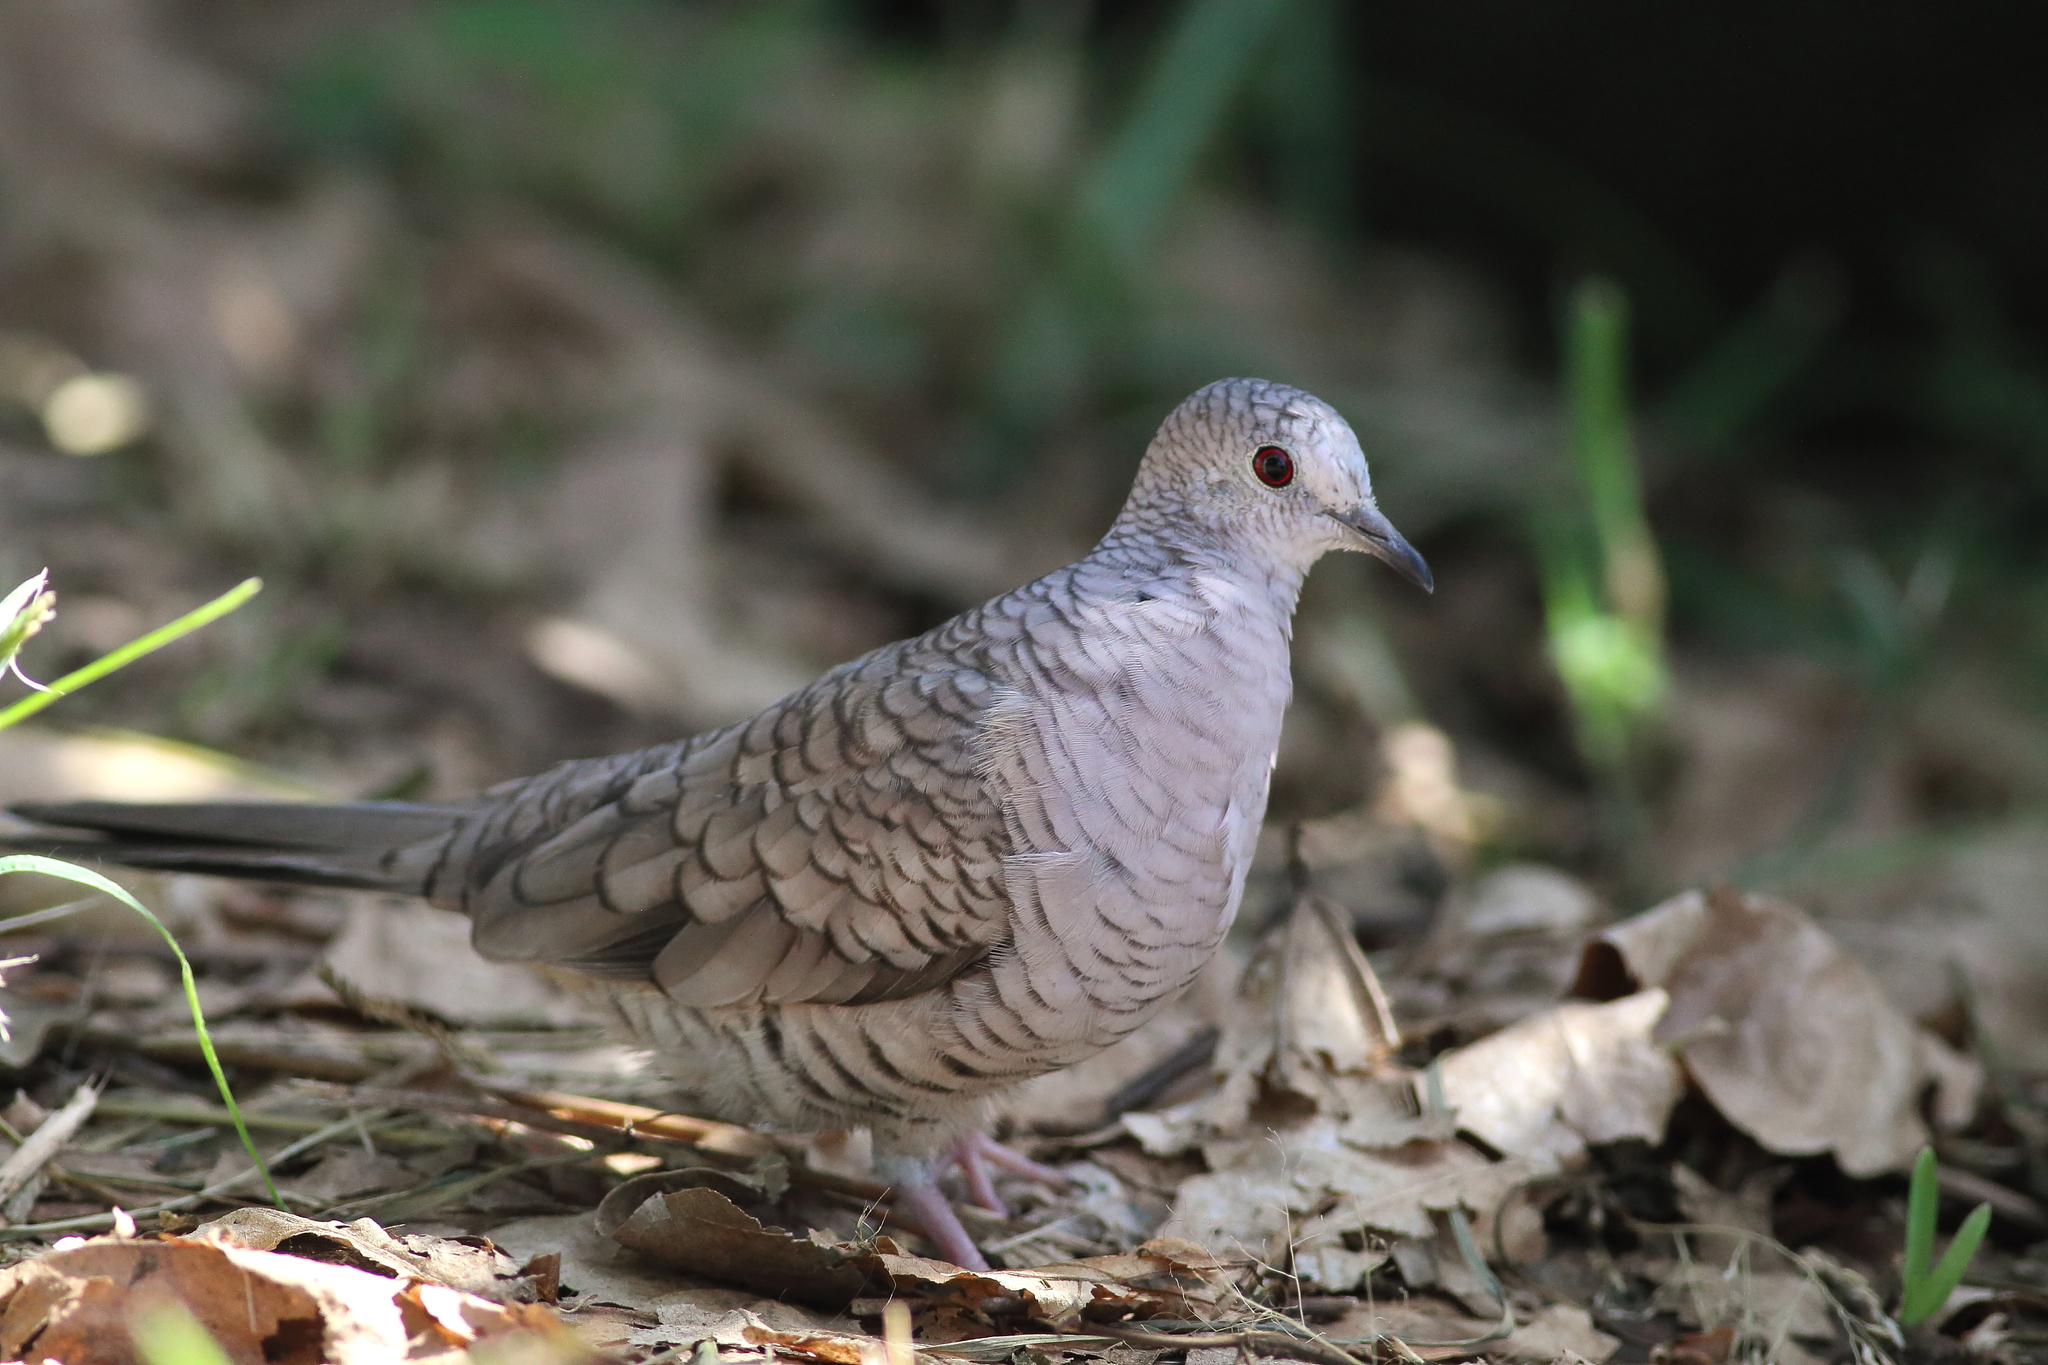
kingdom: Animalia
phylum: Chordata
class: Aves
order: Columbiformes
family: Columbidae
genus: Columbina
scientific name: Columbina inca
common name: Inca dove
